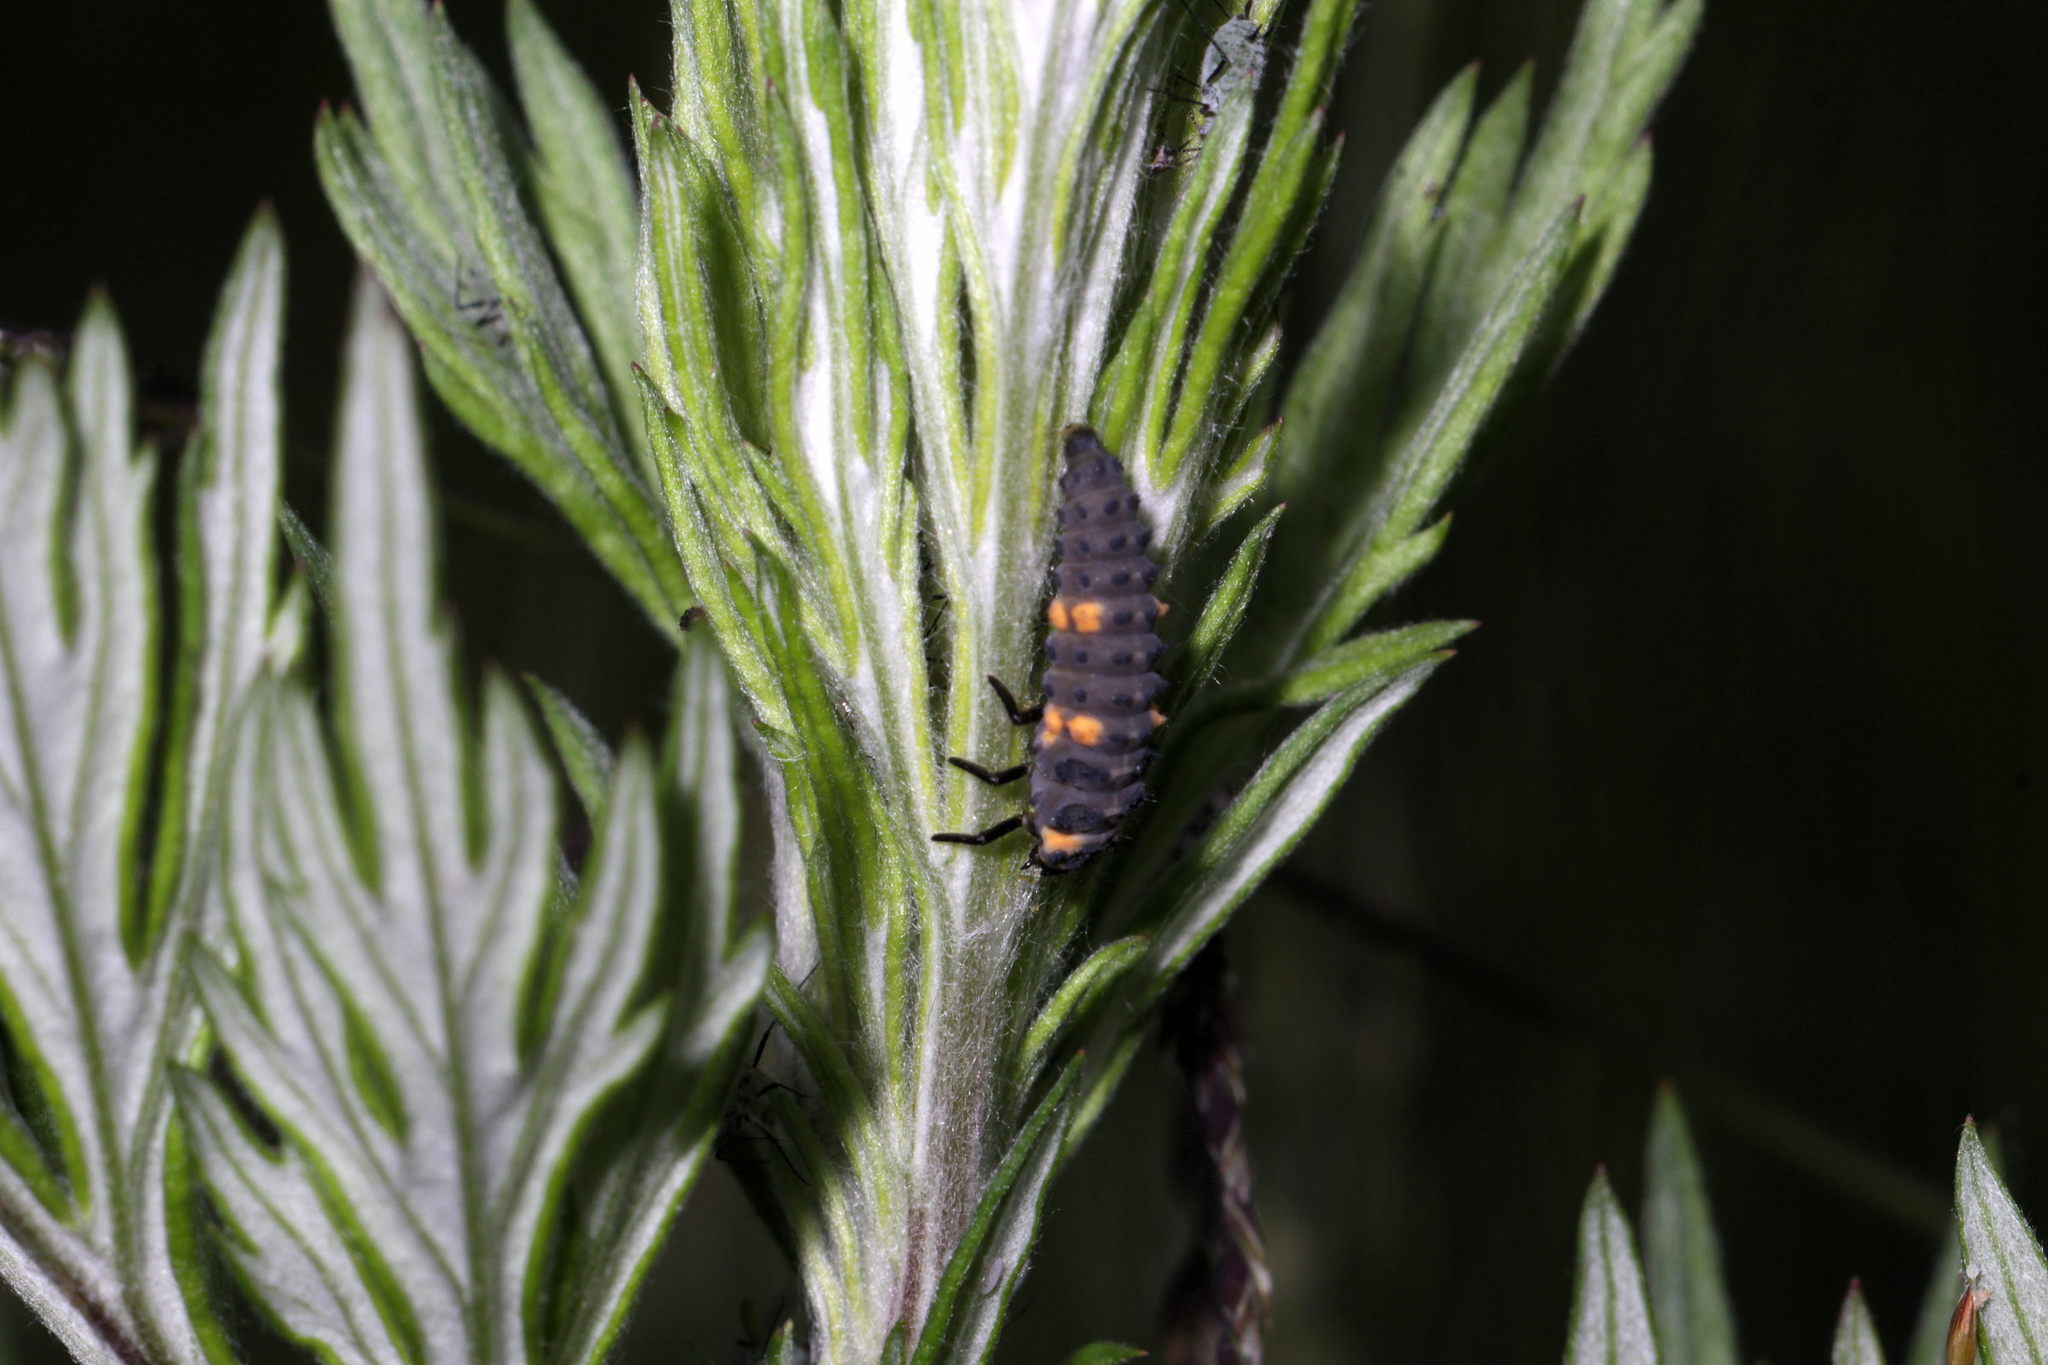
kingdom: Animalia
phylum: Arthropoda
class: Insecta
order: Coleoptera
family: Coccinellidae
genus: Coccinella
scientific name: Coccinella septempunctata
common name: Sevenspotted lady beetle
